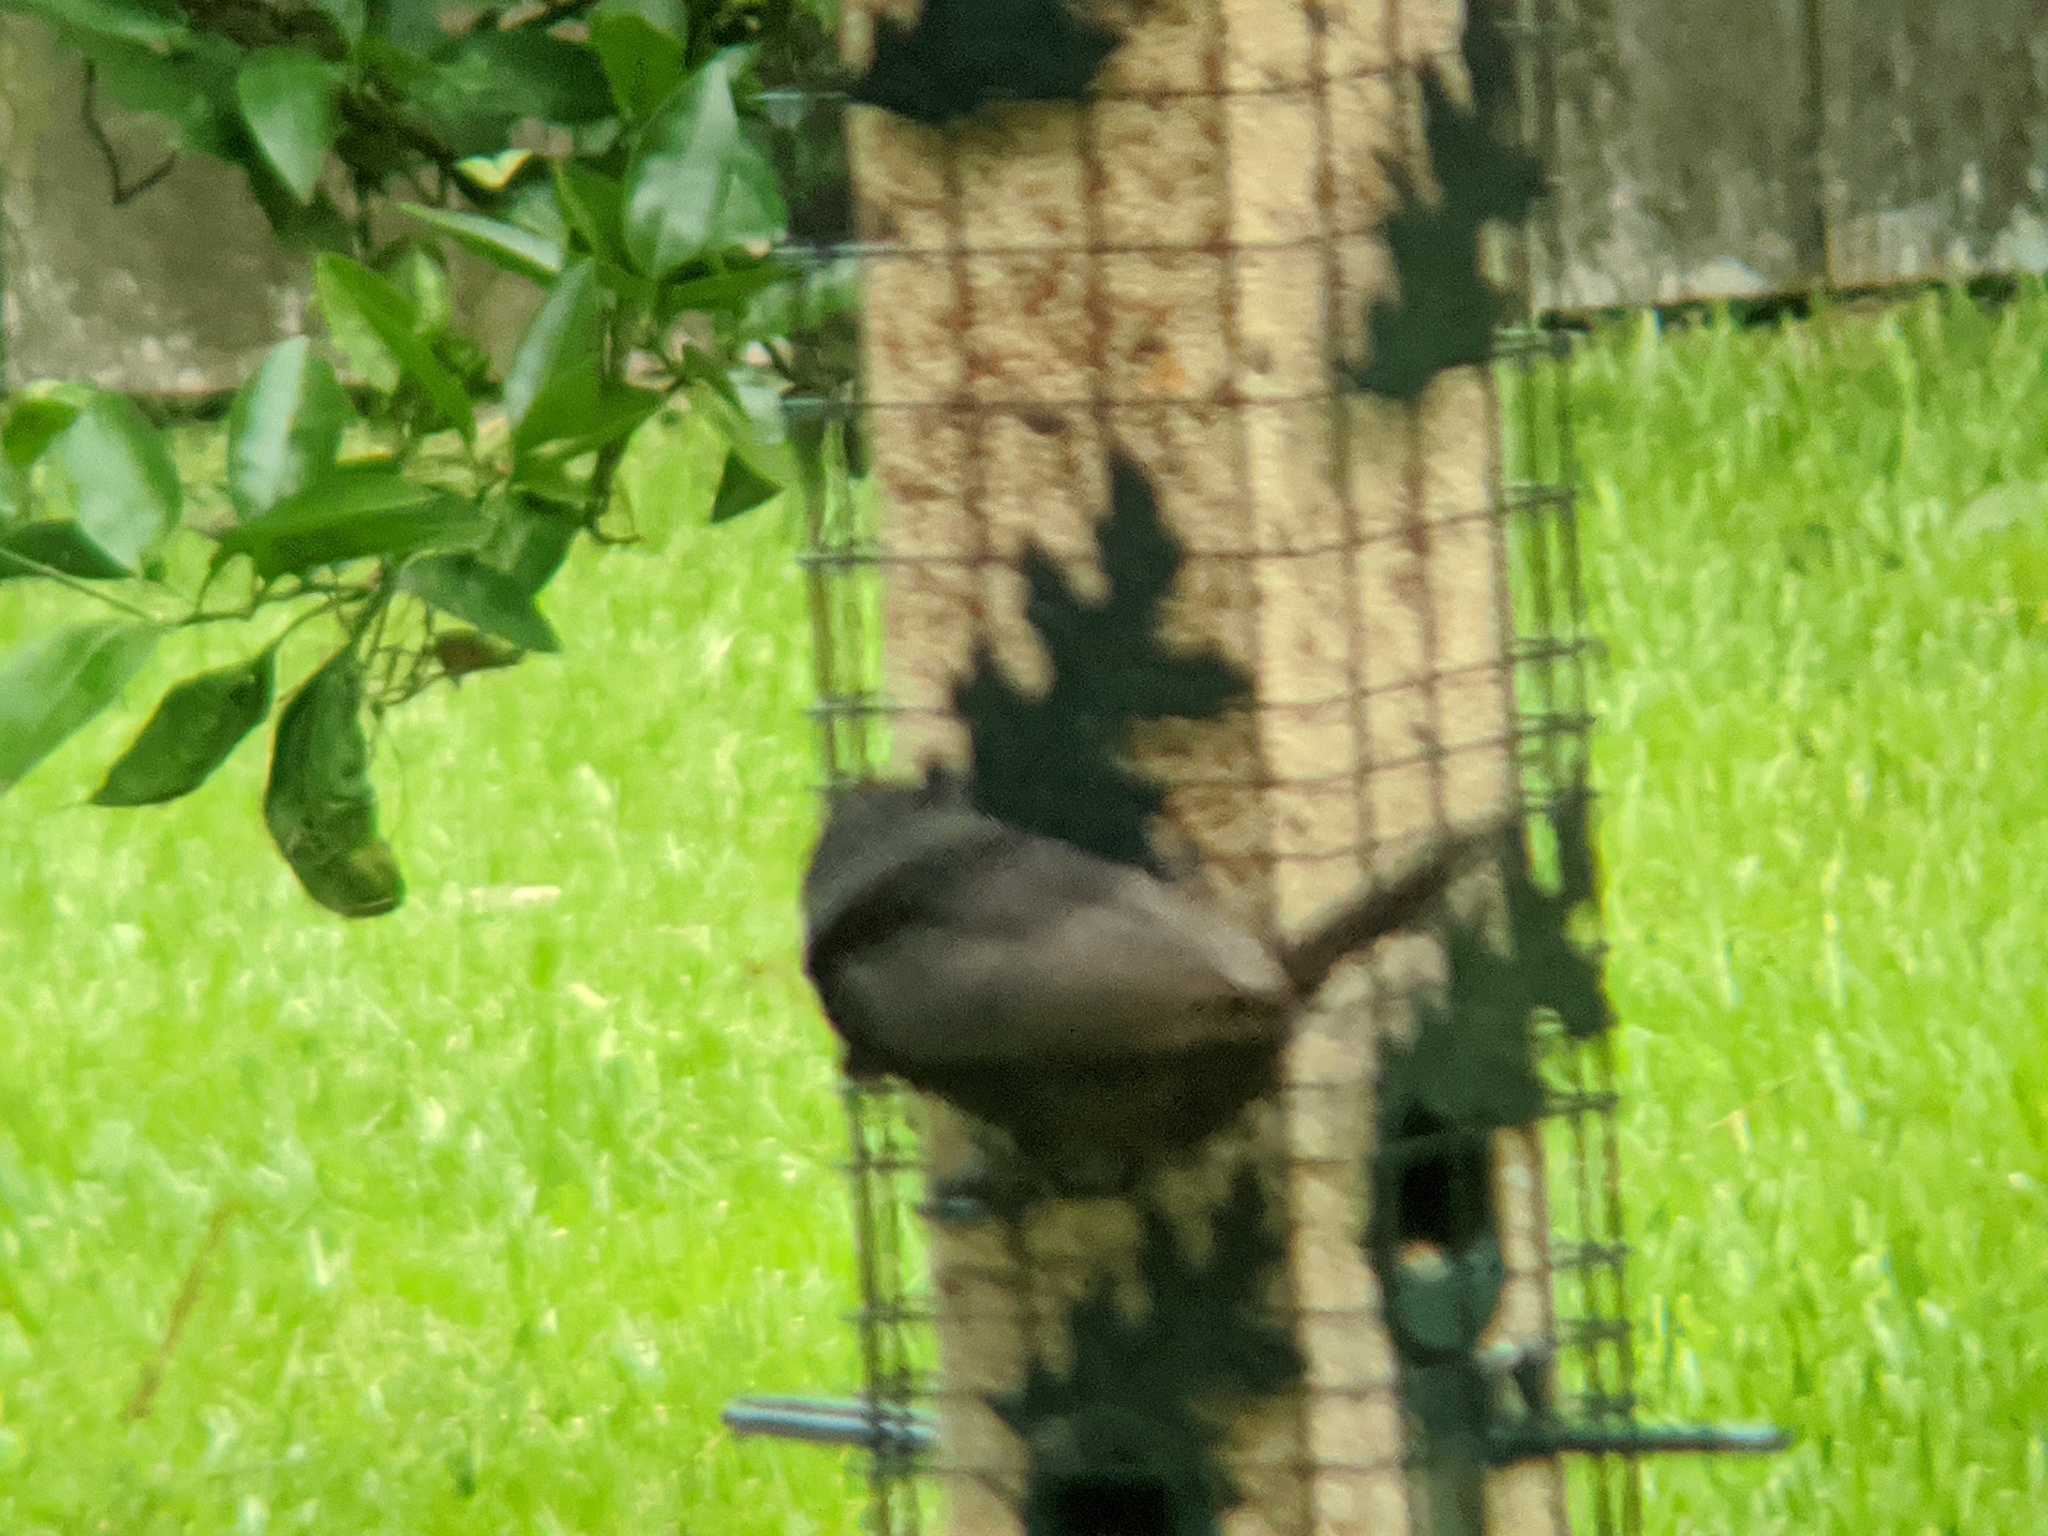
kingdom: Animalia
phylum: Chordata
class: Aves
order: Passeriformes
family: Icteridae
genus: Molothrus
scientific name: Molothrus aeneus
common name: Bronzed cowbird
